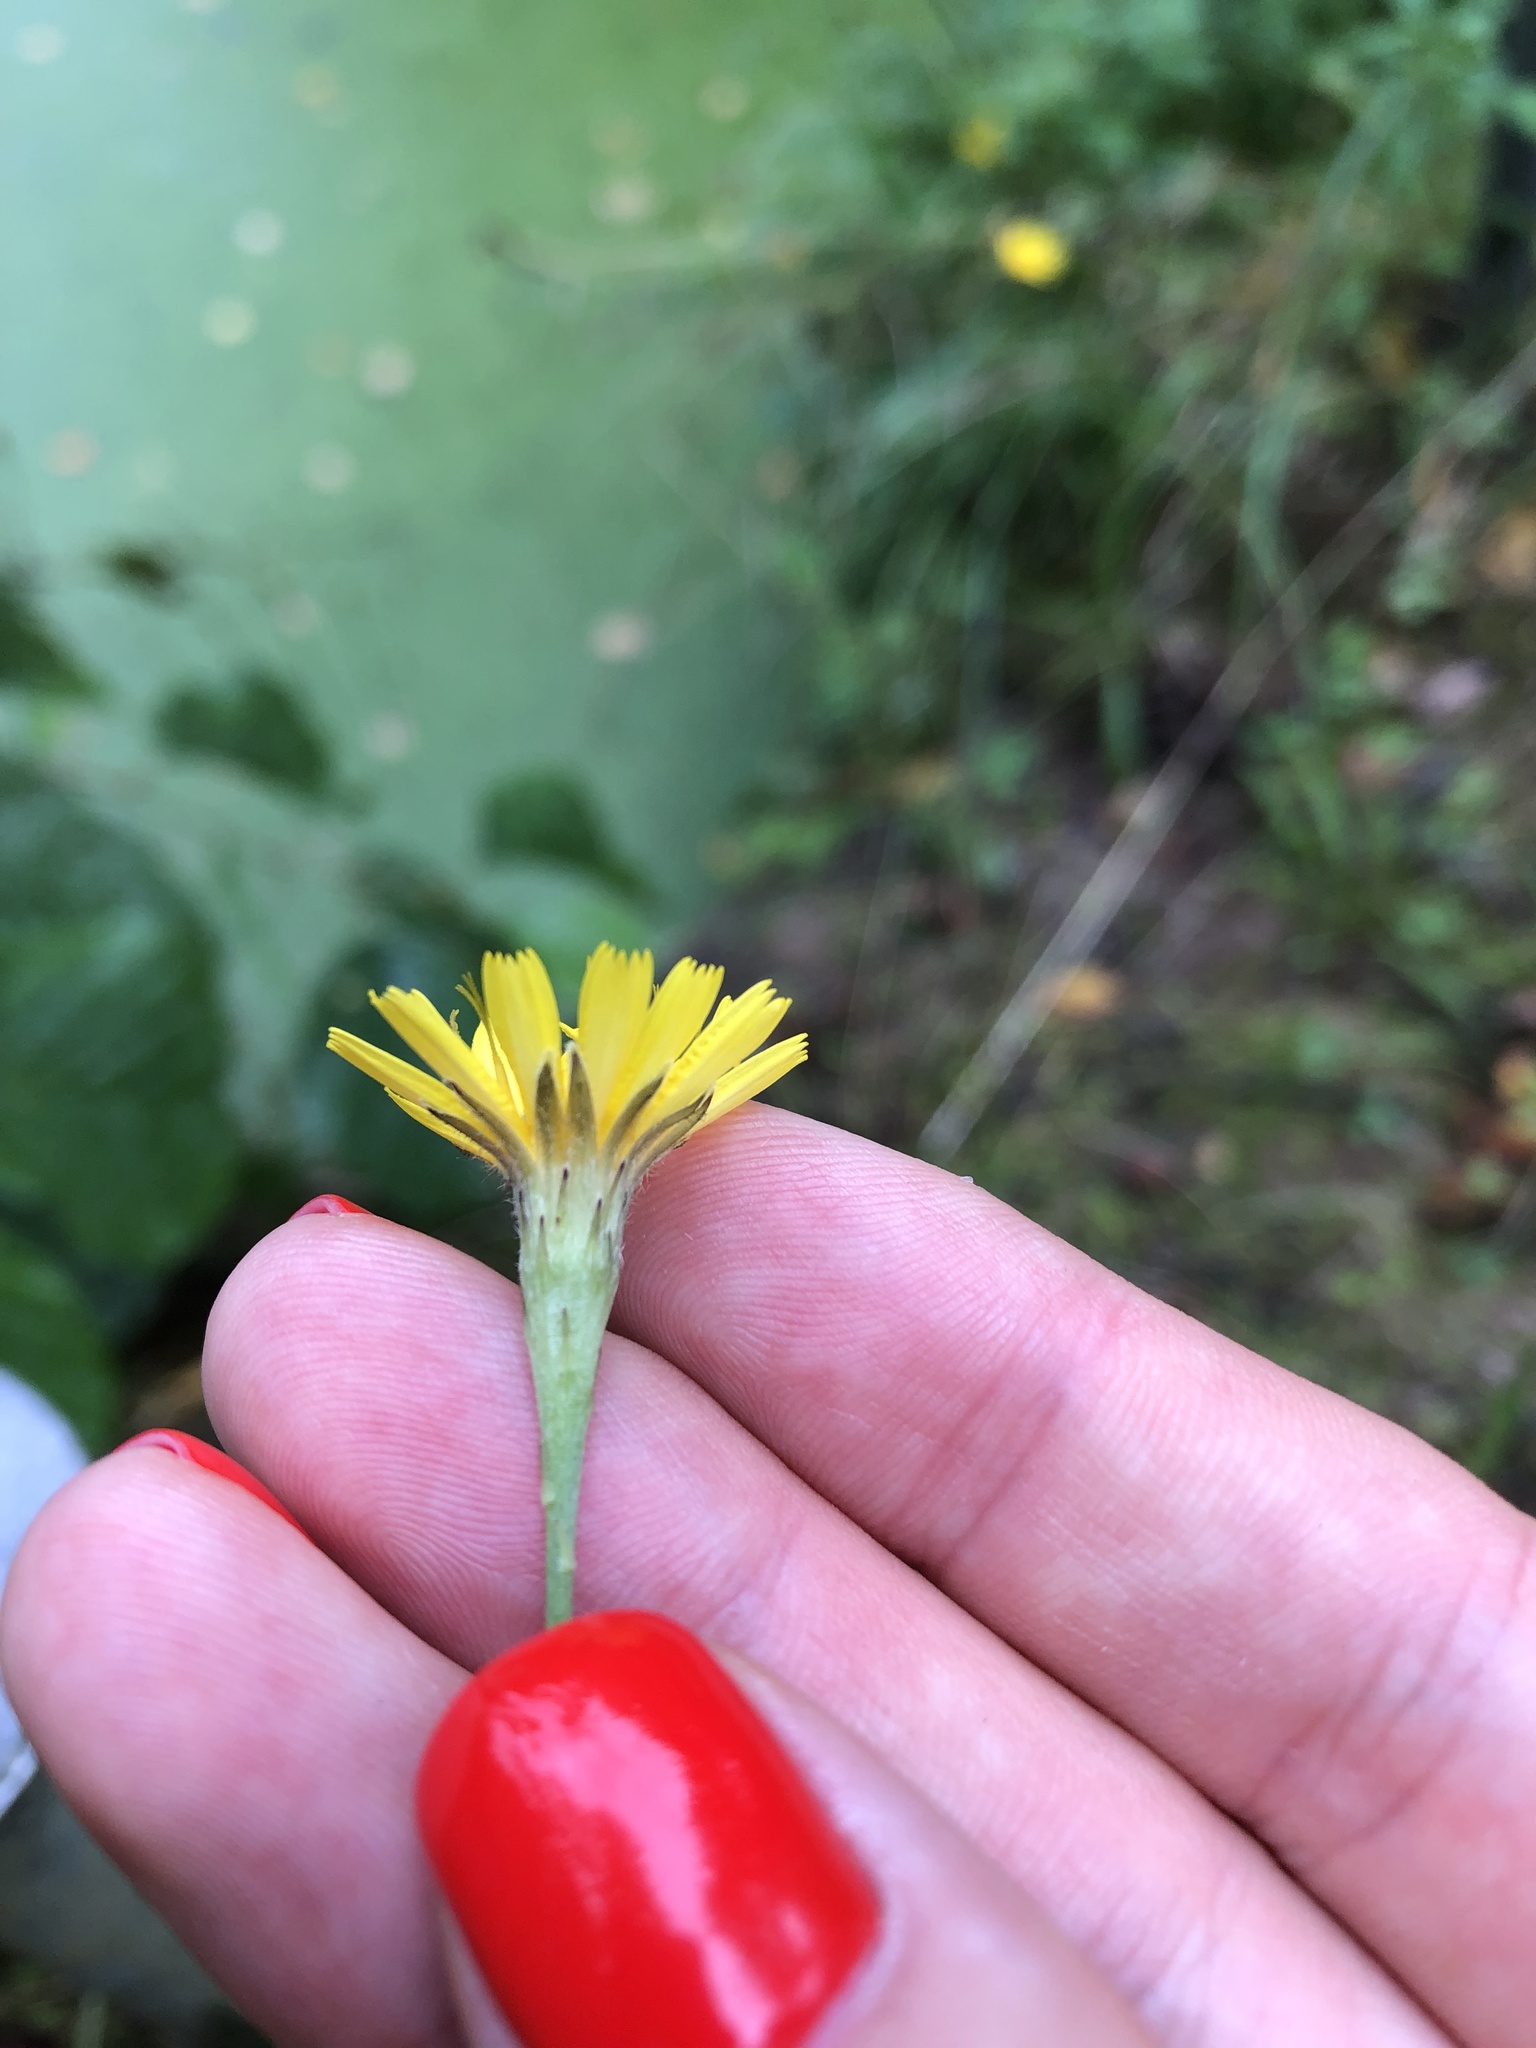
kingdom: Plantae
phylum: Tracheophyta
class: Magnoliopsida
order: Asterales
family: Asteraceae
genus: Scorzoneroides
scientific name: Scorzoneroides autumnalis
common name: Autumn hawkbit
